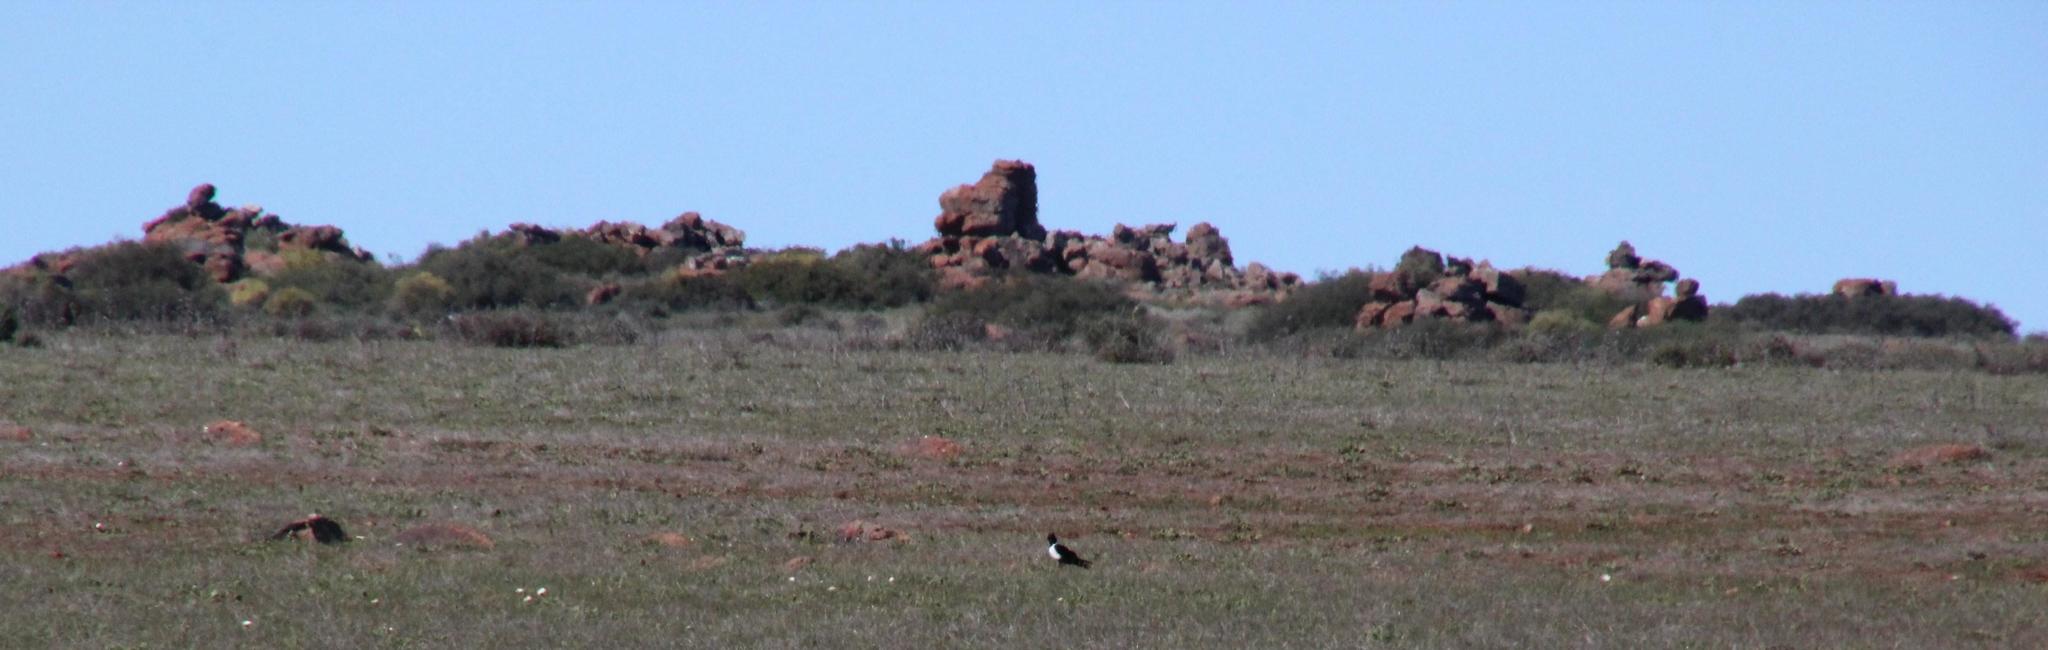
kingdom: Animalia
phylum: Chordata
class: Aves
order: Passeriformes
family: Corvidae
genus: Corvus
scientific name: Corvus albus
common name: Pied crow
